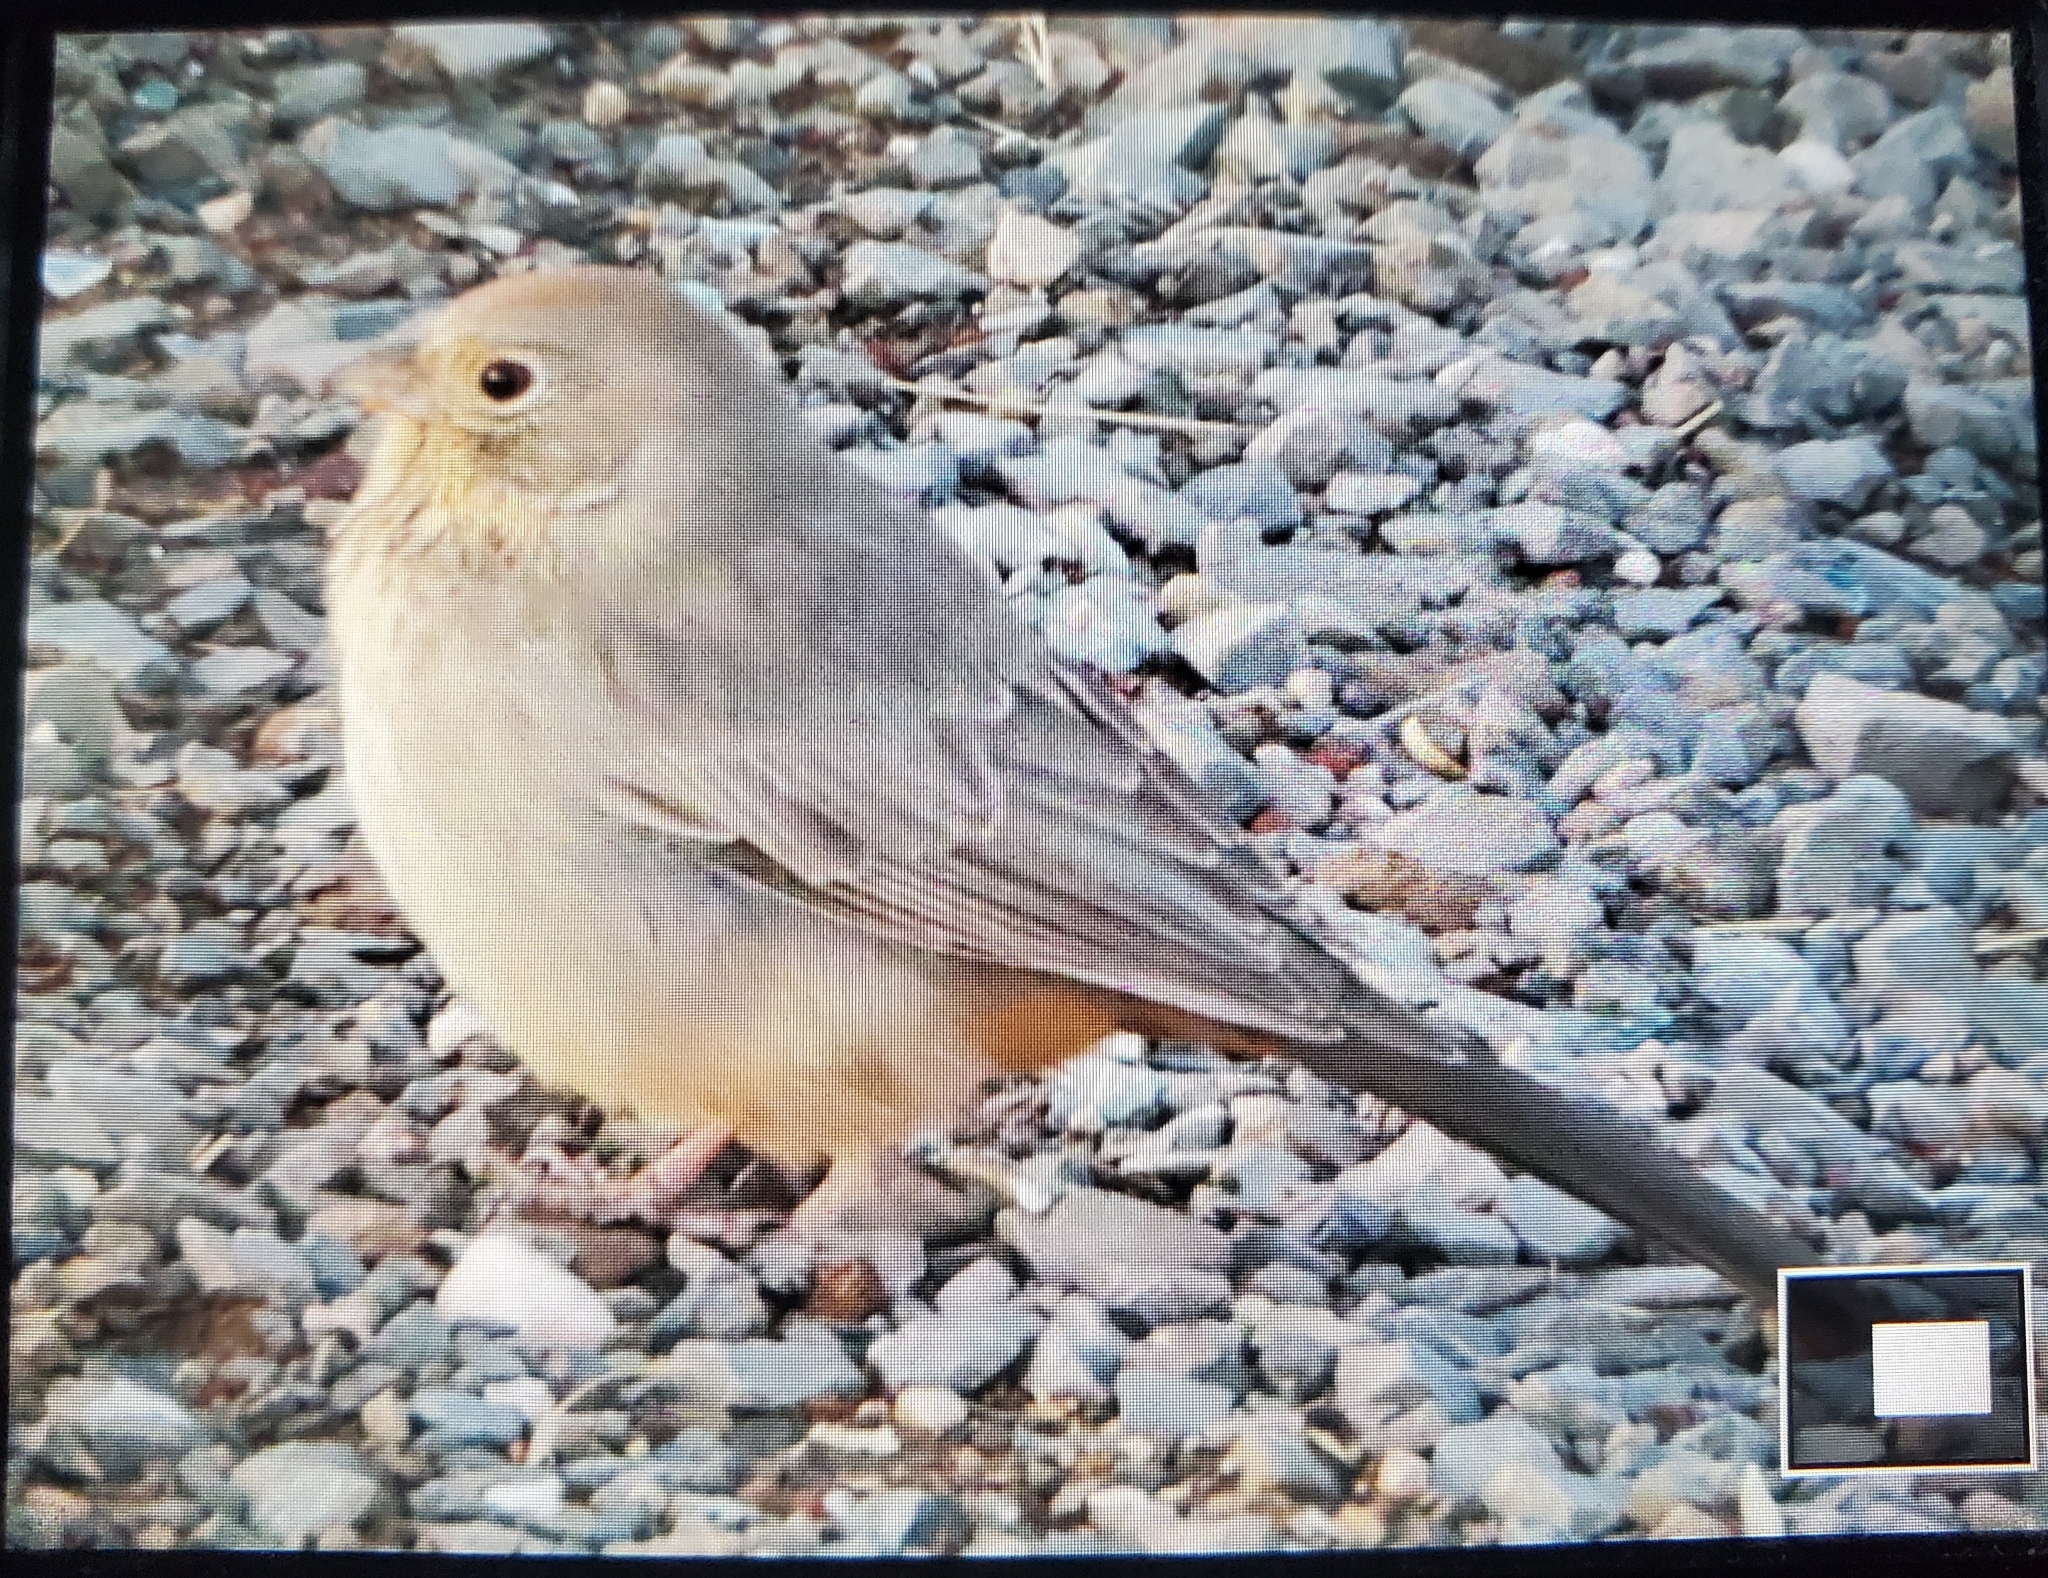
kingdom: Animalia
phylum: Chordata
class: Aves
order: Passeriformes
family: Passerellidae
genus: Melozone
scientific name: Melozone fusca
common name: Canyon towhee
